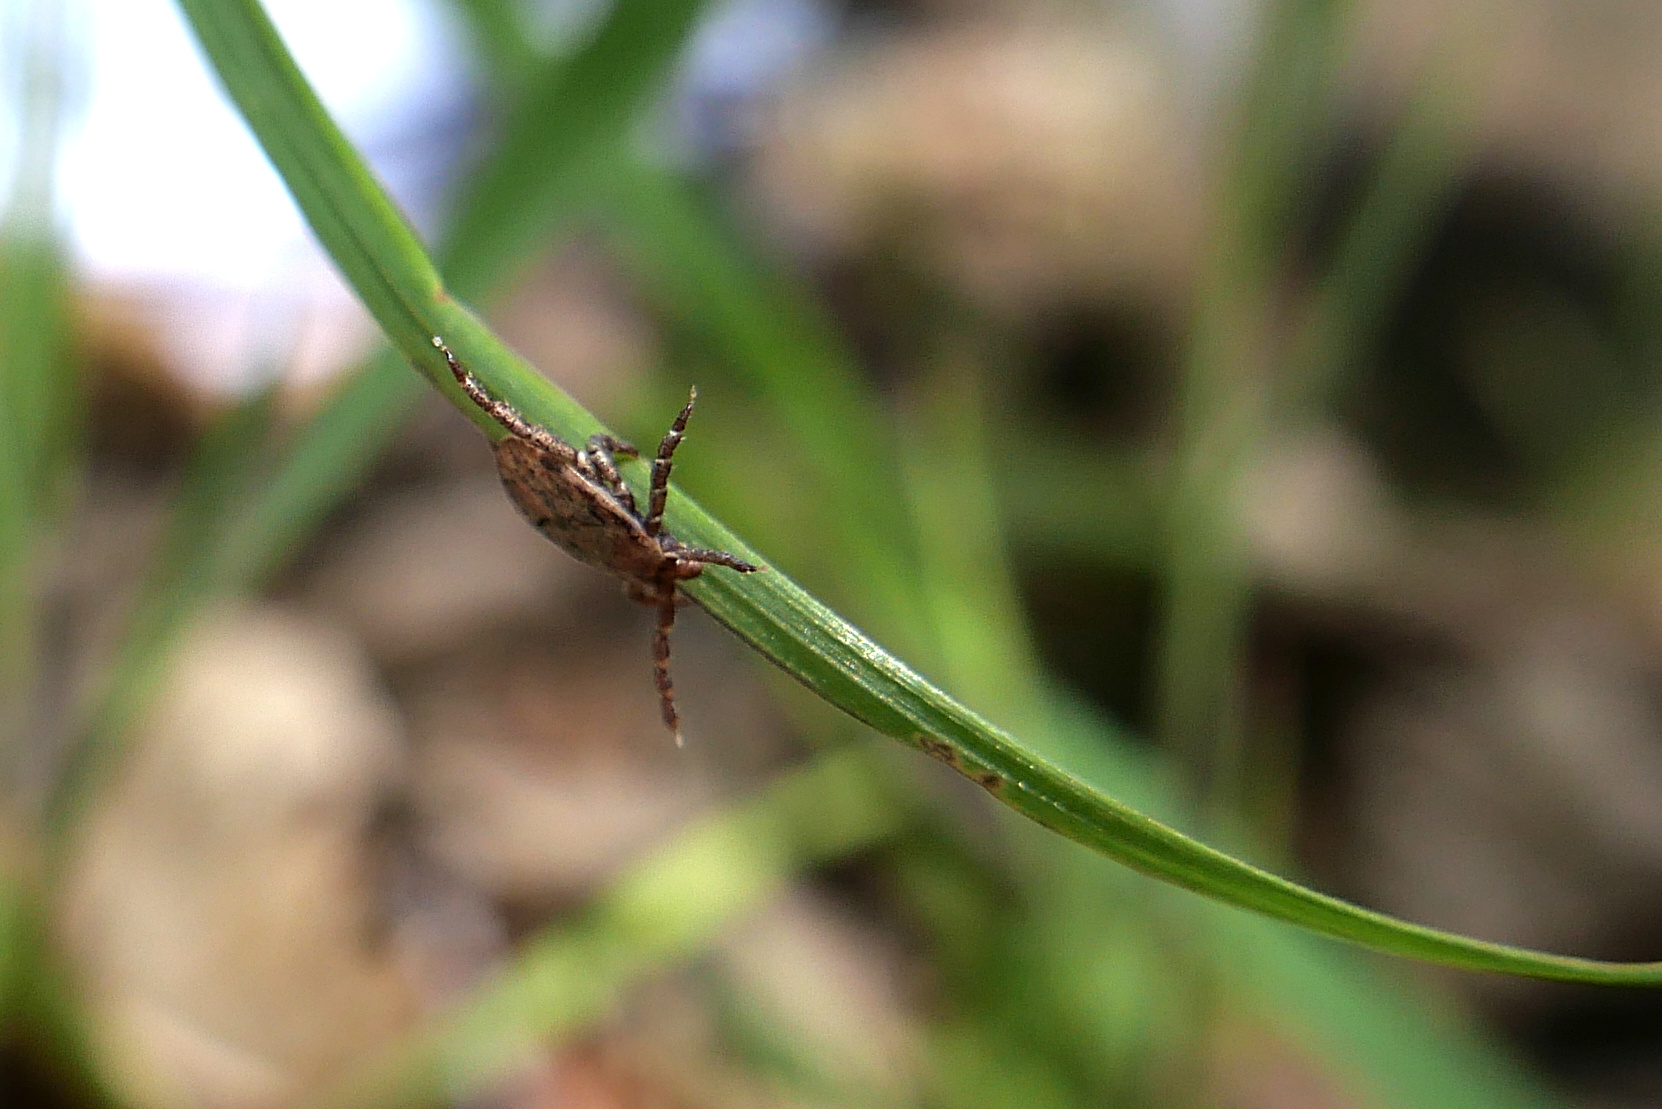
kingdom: Animalia
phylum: Arthropoda
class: Arachnida
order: Ixodida
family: Ixodidae
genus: Dermacentor
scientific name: Dermacentor occidentalis
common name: Net tick
